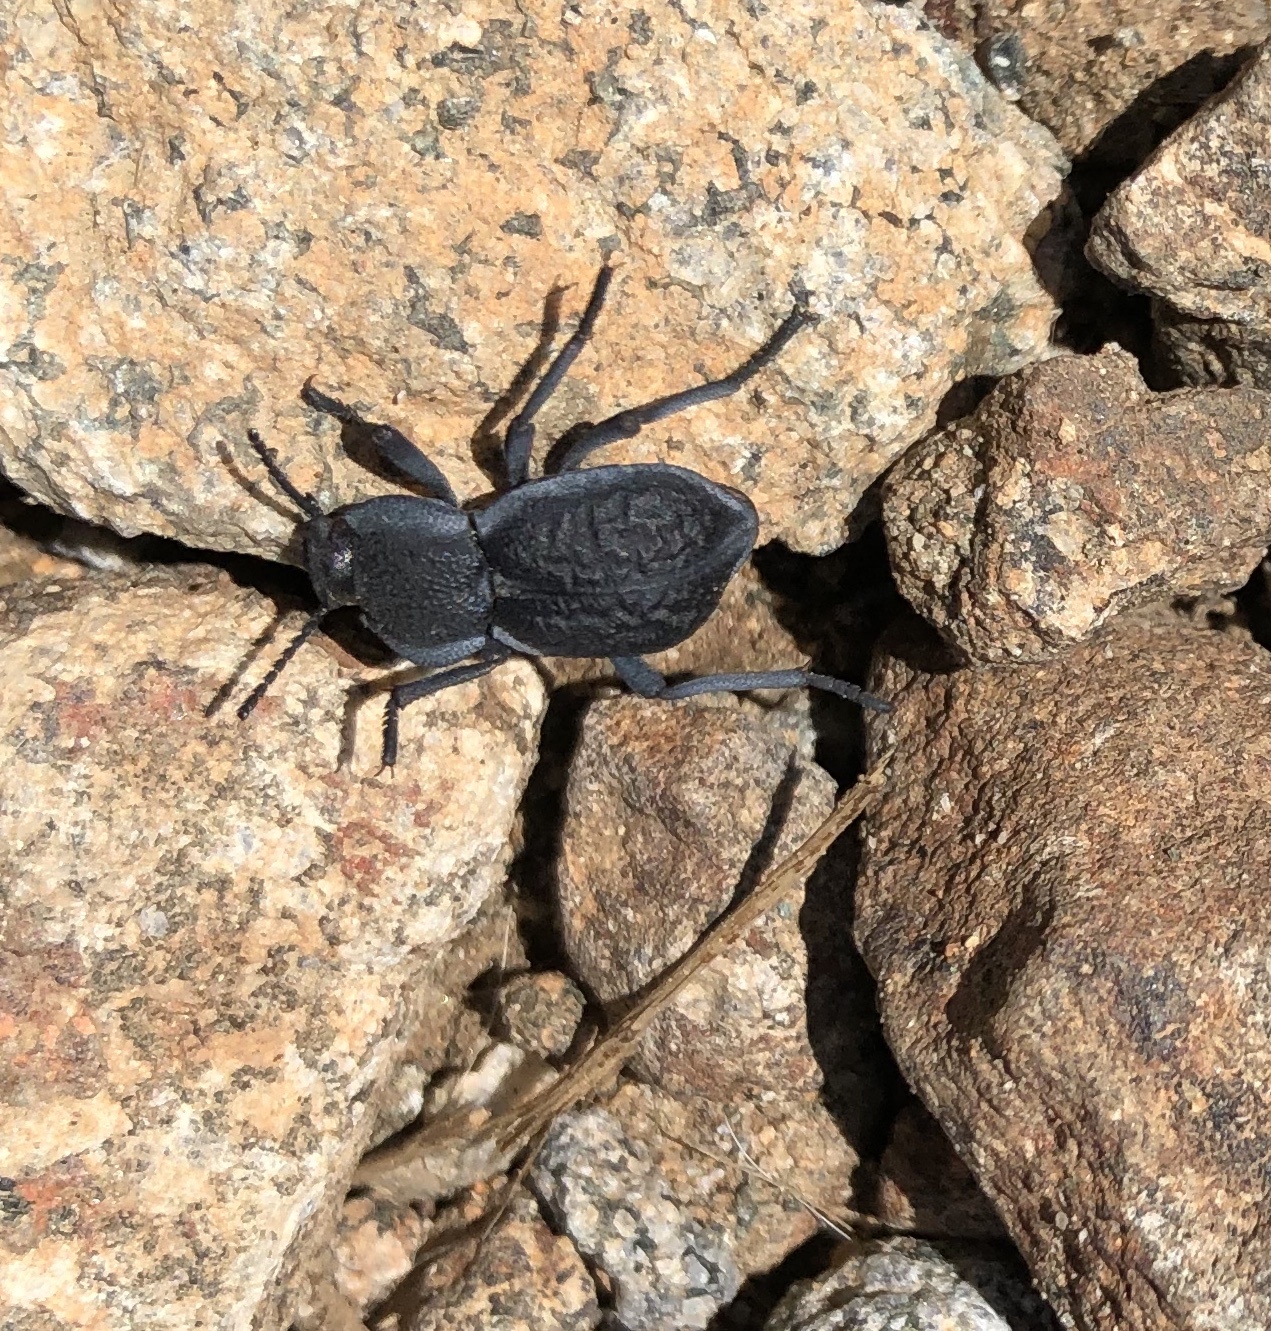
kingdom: Animalia
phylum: Arthropoda
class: Insecta
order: Coleoptera
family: Tenebrionidae
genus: Microschatia
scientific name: Microschatia inaequalis
